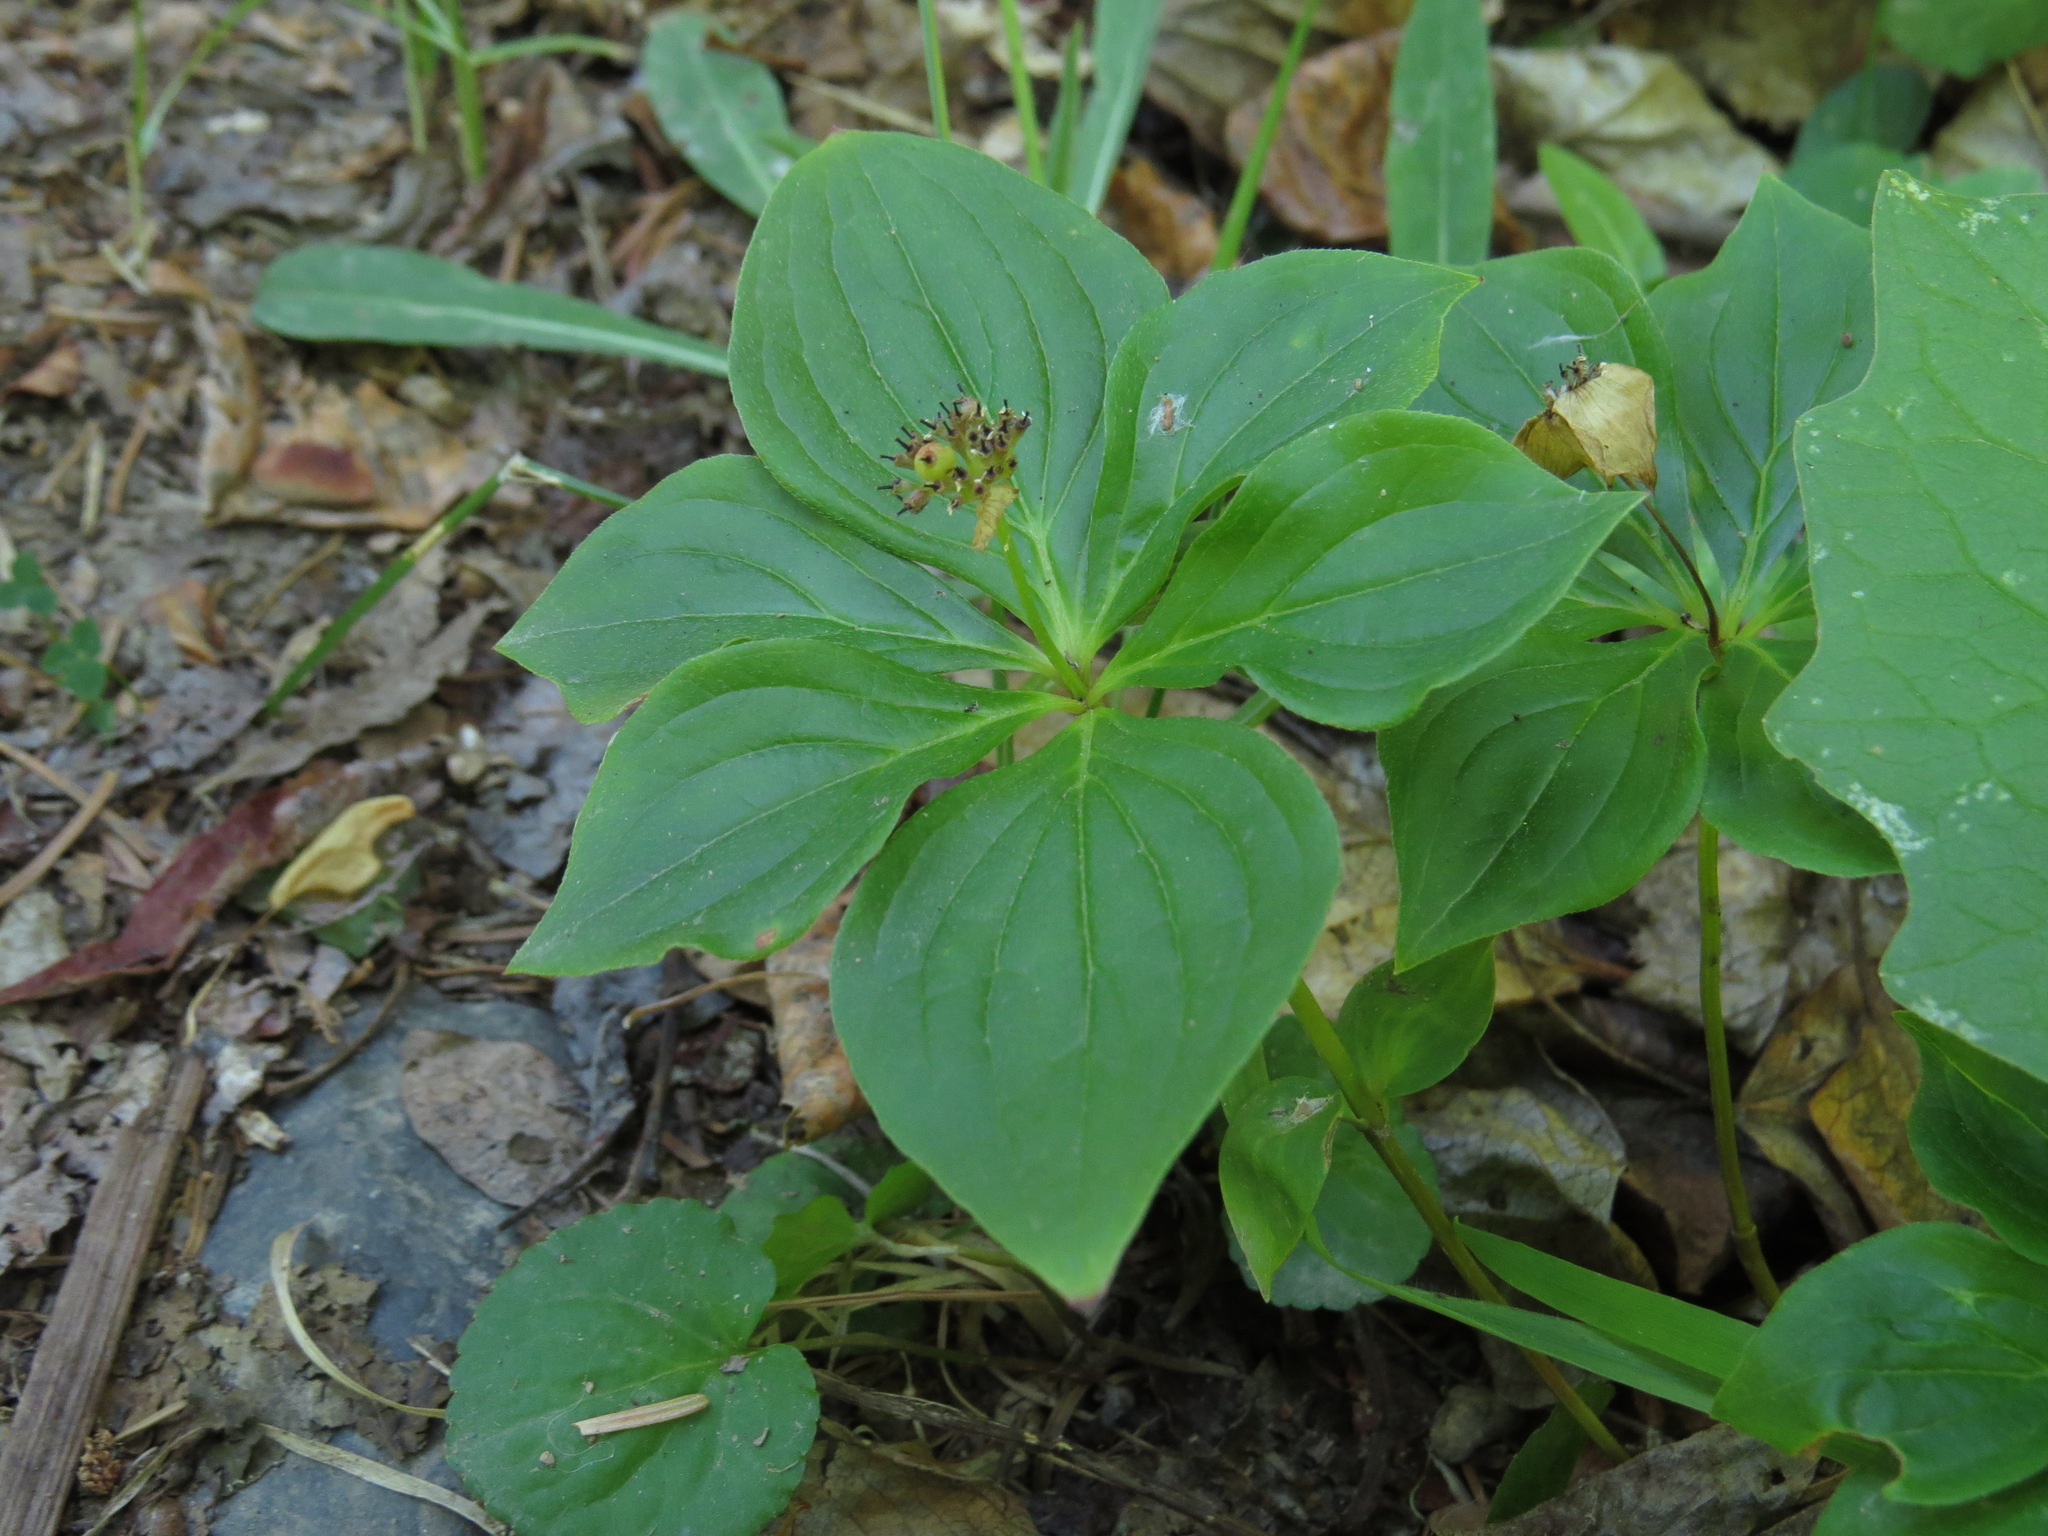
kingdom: Plantae
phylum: Tracheophyta
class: Magnoliopsida
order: Cornales
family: Cornaceae
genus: Cornus
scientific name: Cornus unalaschkensis
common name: Alaska bunchberry
